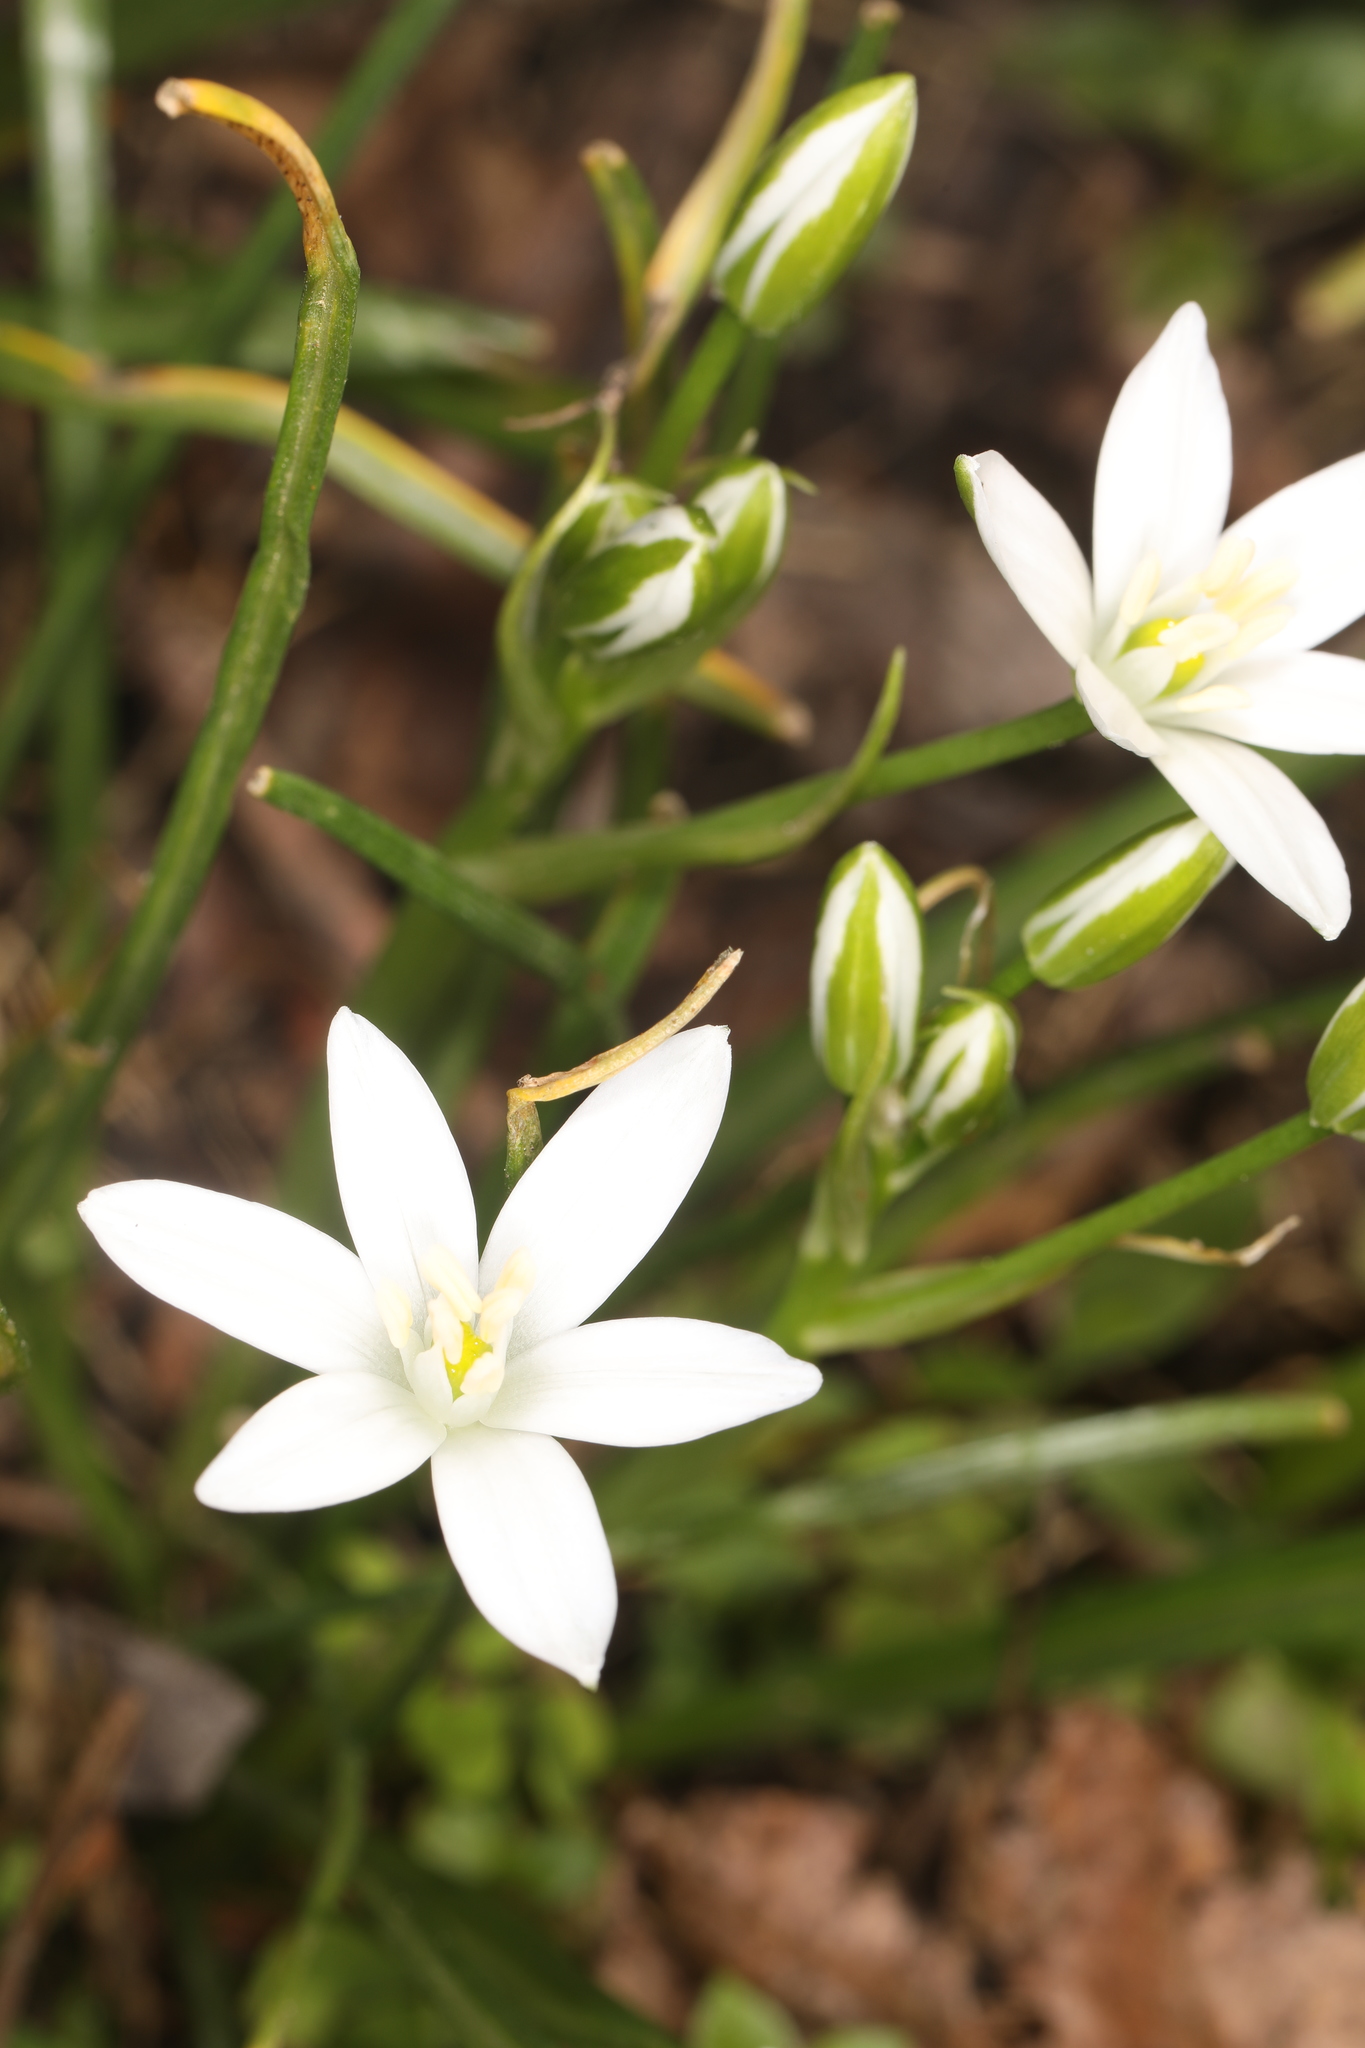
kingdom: Plantae
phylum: Tracheophyta
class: Liliopsida
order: Asparagales
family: Asparagaceae
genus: Ornithogalum
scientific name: Ornithogalum umbellatum
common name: Garden star-of-bethlehem
